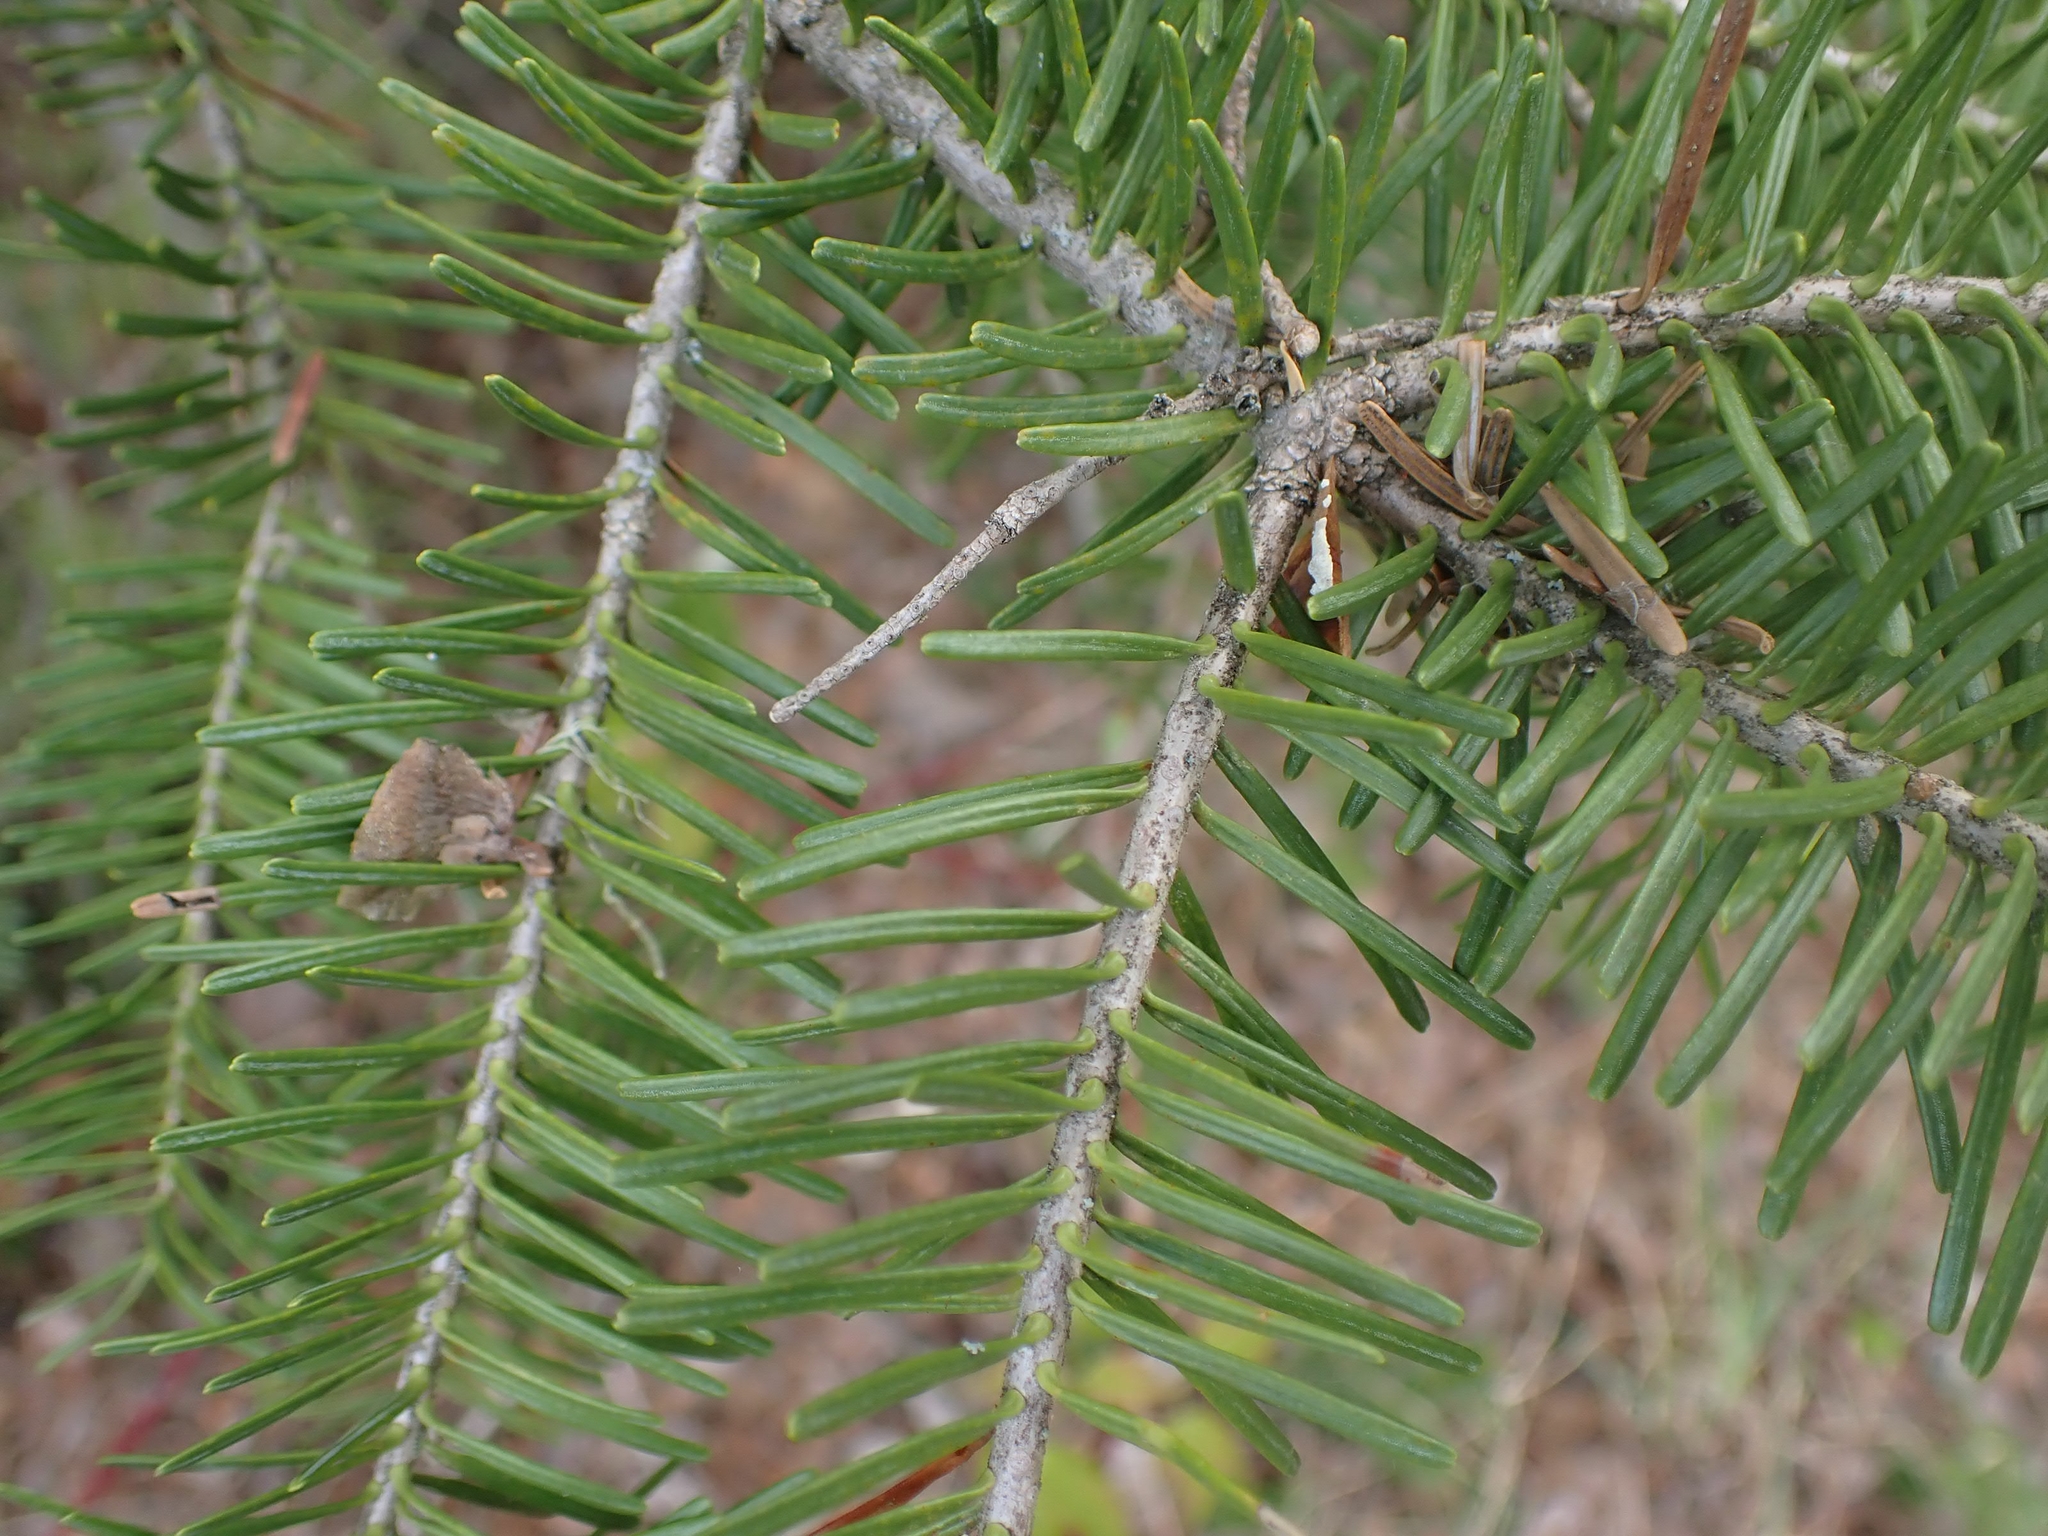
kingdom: Plantae
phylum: Tracheophyta
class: Pinopsida
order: Pinales
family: Pinaceae
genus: Abies
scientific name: Abies balsamea
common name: Balsam fir
